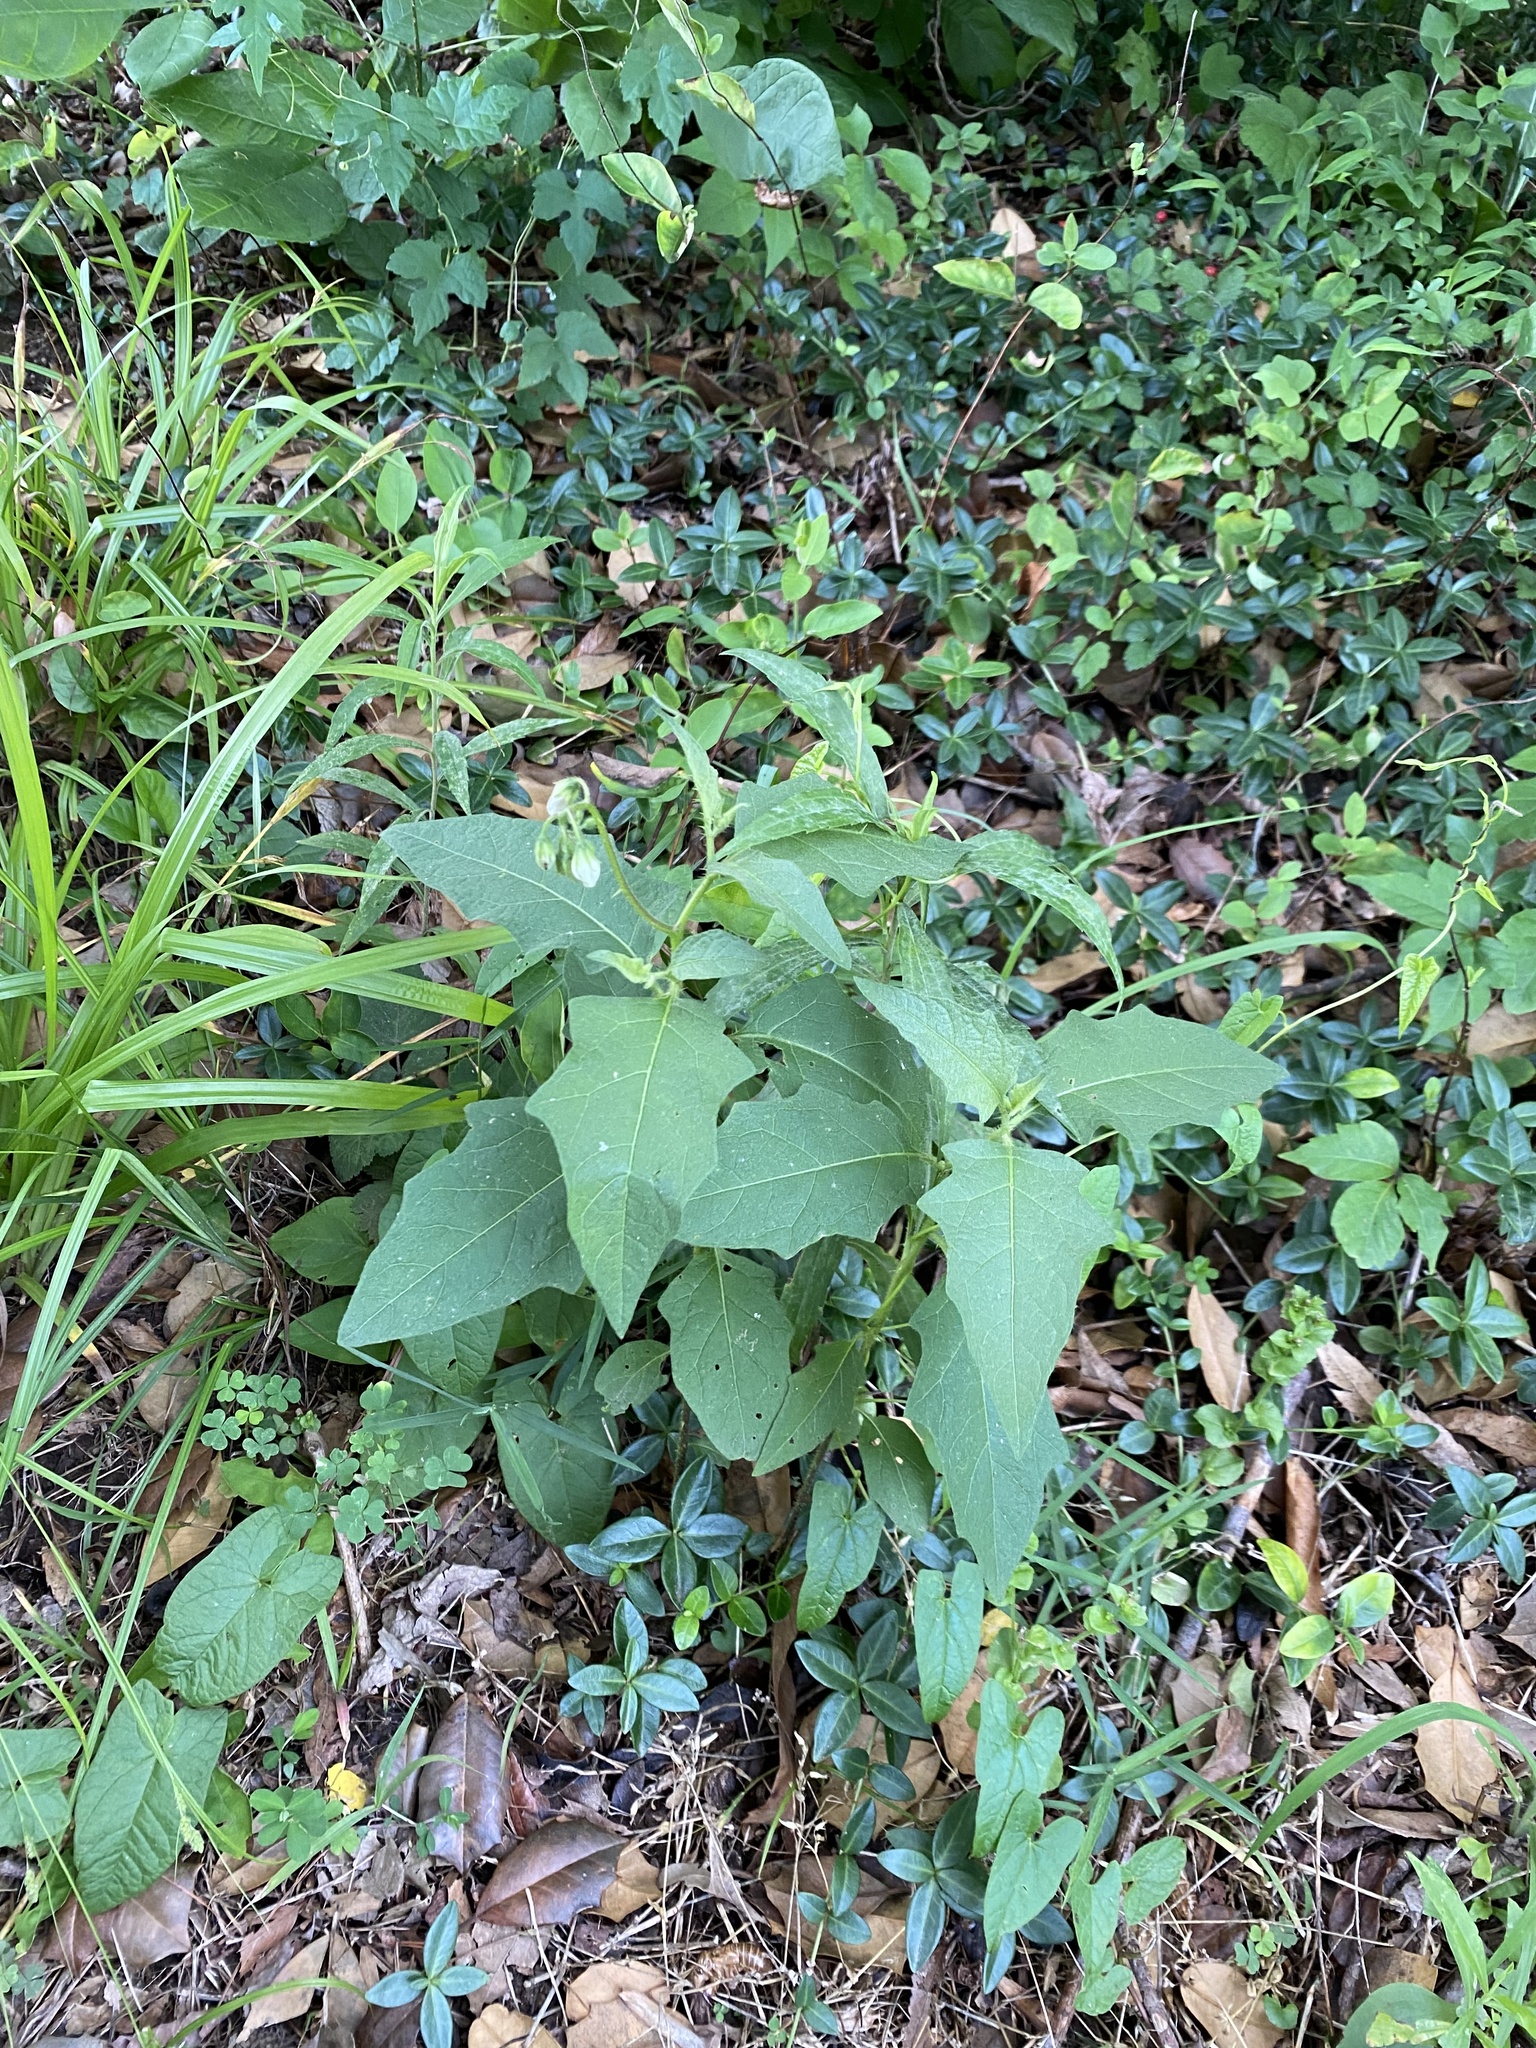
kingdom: Plantae
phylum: Tracheophyta
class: Magnoliopsida
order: Solanales
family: Solanaceae
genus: Solanum
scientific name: Solanum carolinense
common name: Horse-nettle
